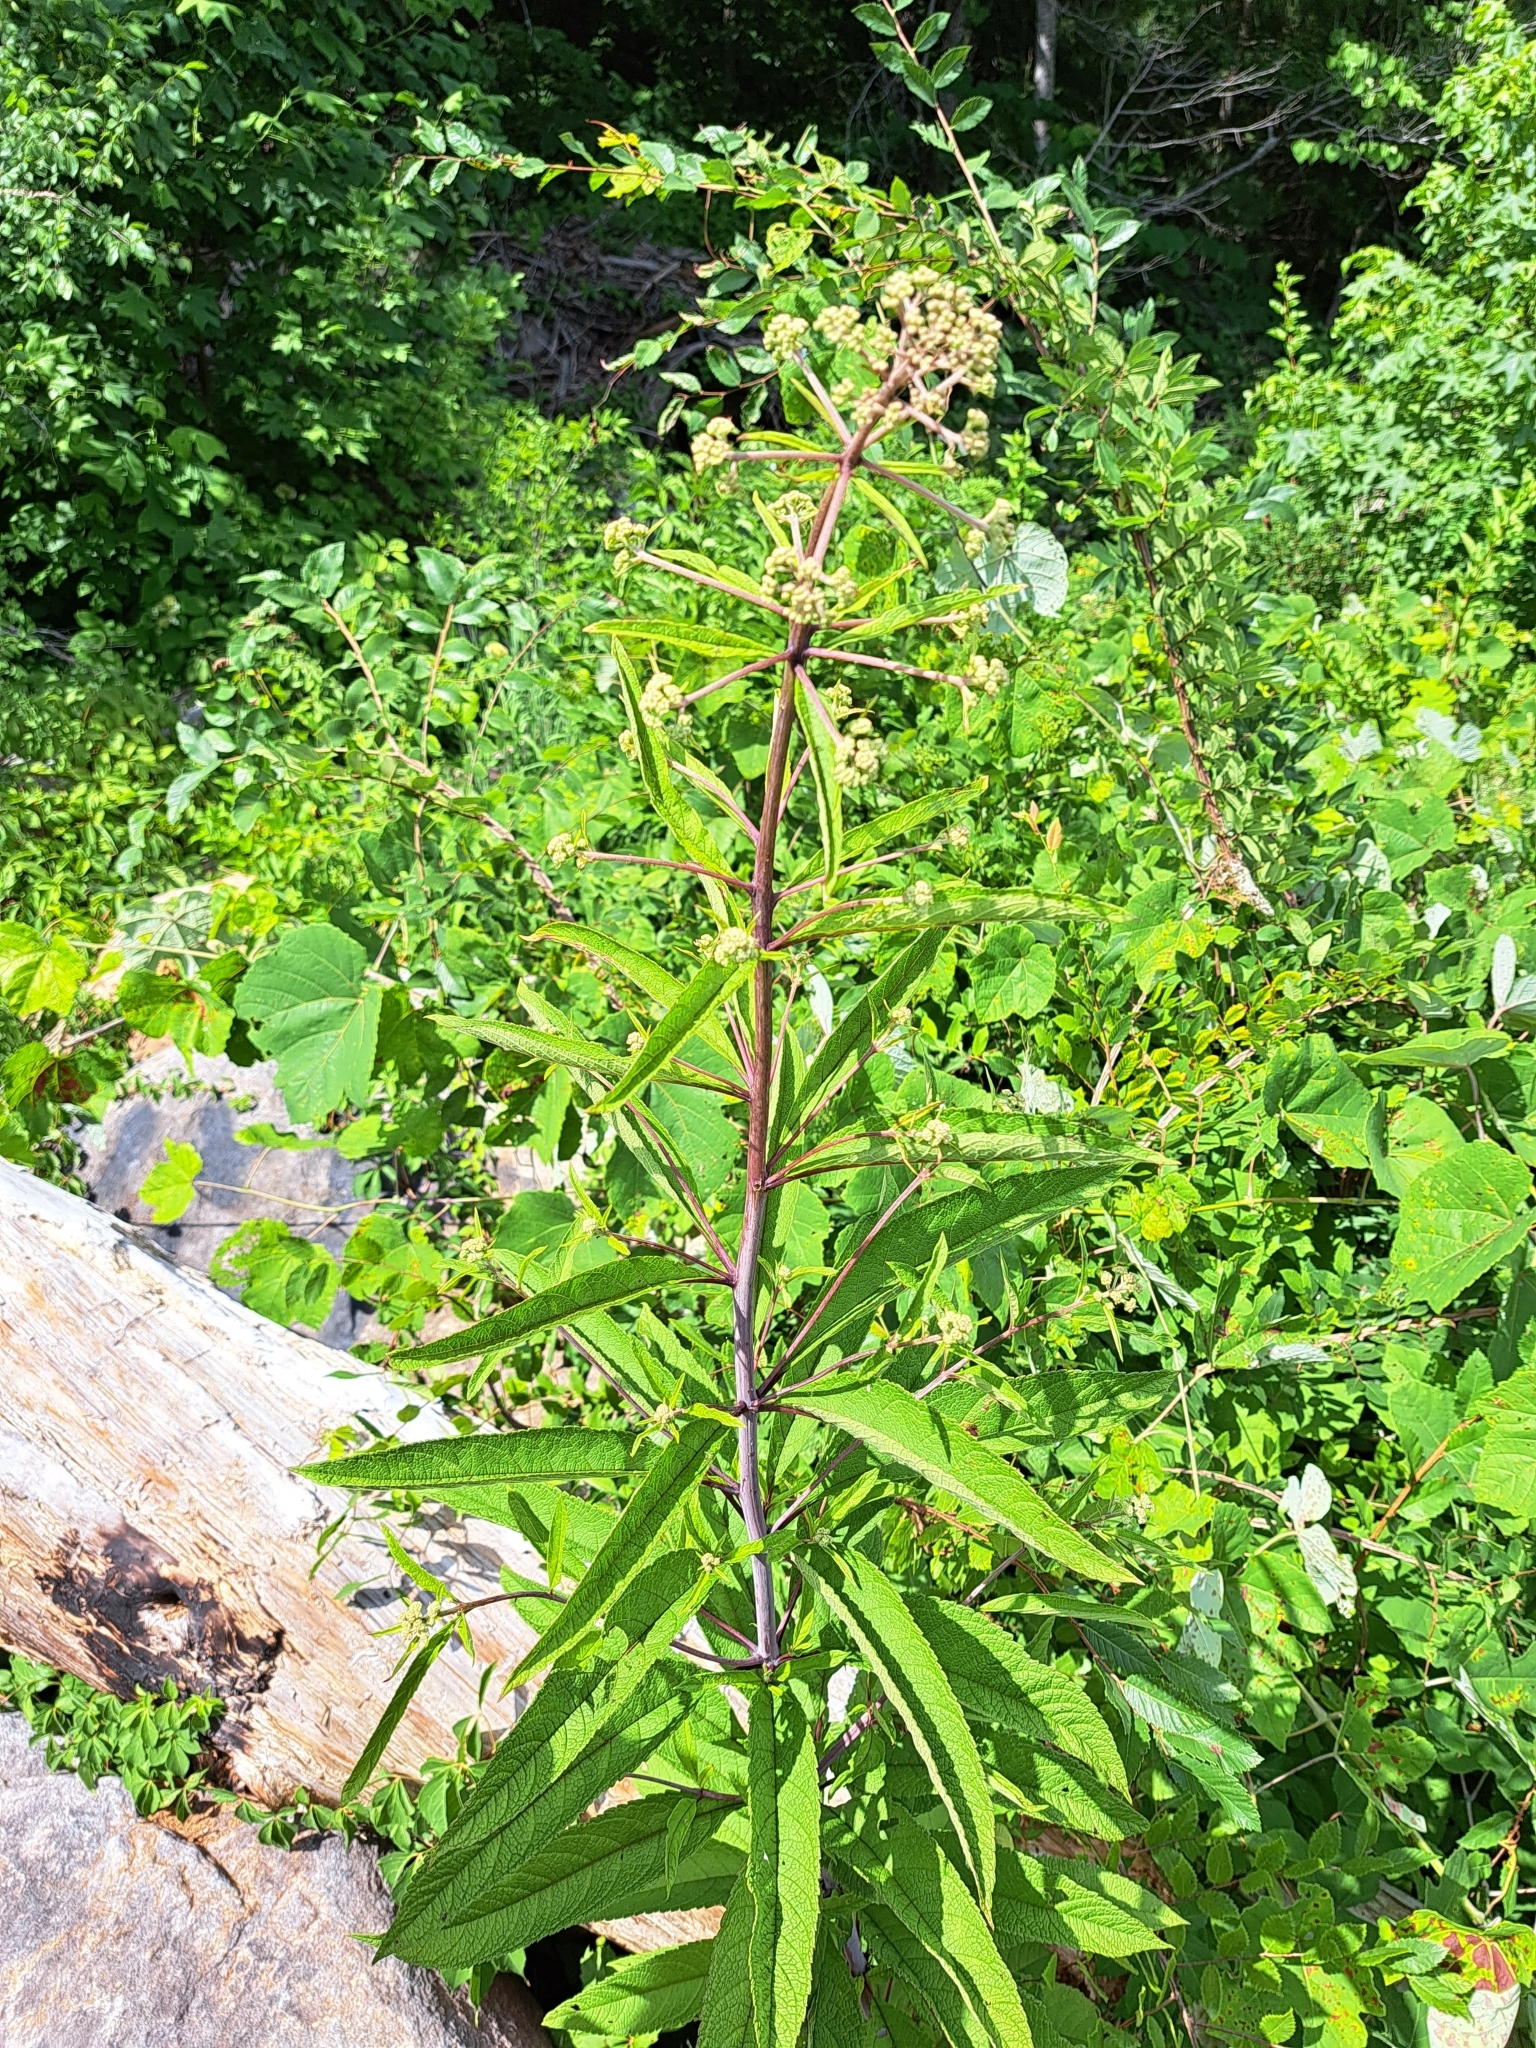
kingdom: Plantae
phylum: Tracheophyta
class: Magnoliopsida
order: Asterales
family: Asteraceae
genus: Eutrochium
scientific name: Eutrochium fistulosum
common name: Trumpetweed
